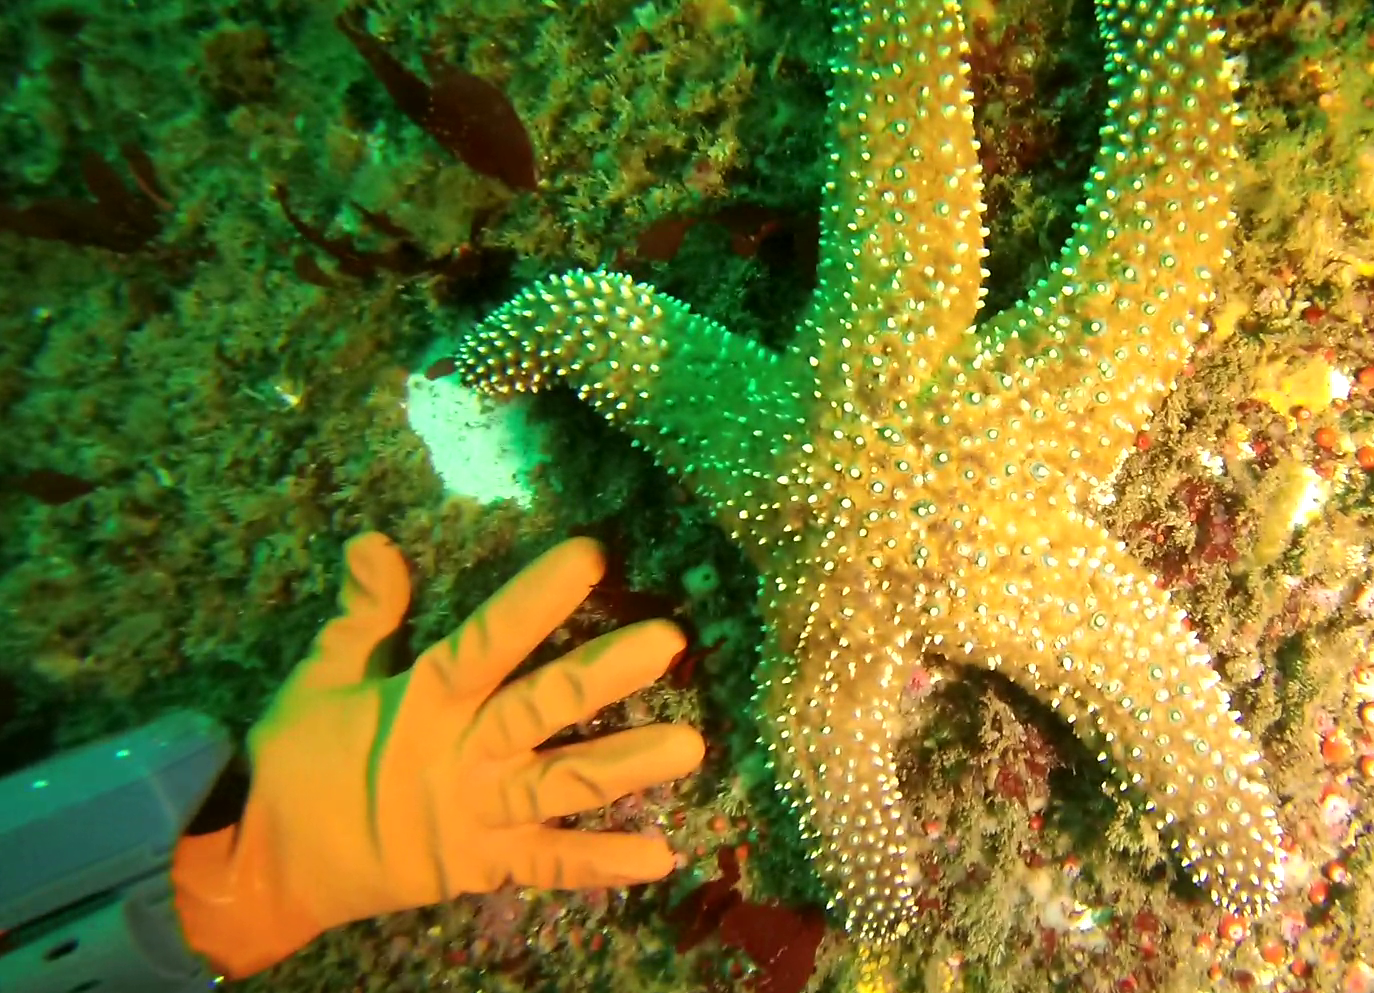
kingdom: Animalia
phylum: Echinodermata
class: Asteroidea
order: Forcipulatida
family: Asteriidae
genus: Pisaster
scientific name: Pisaster giganteus
